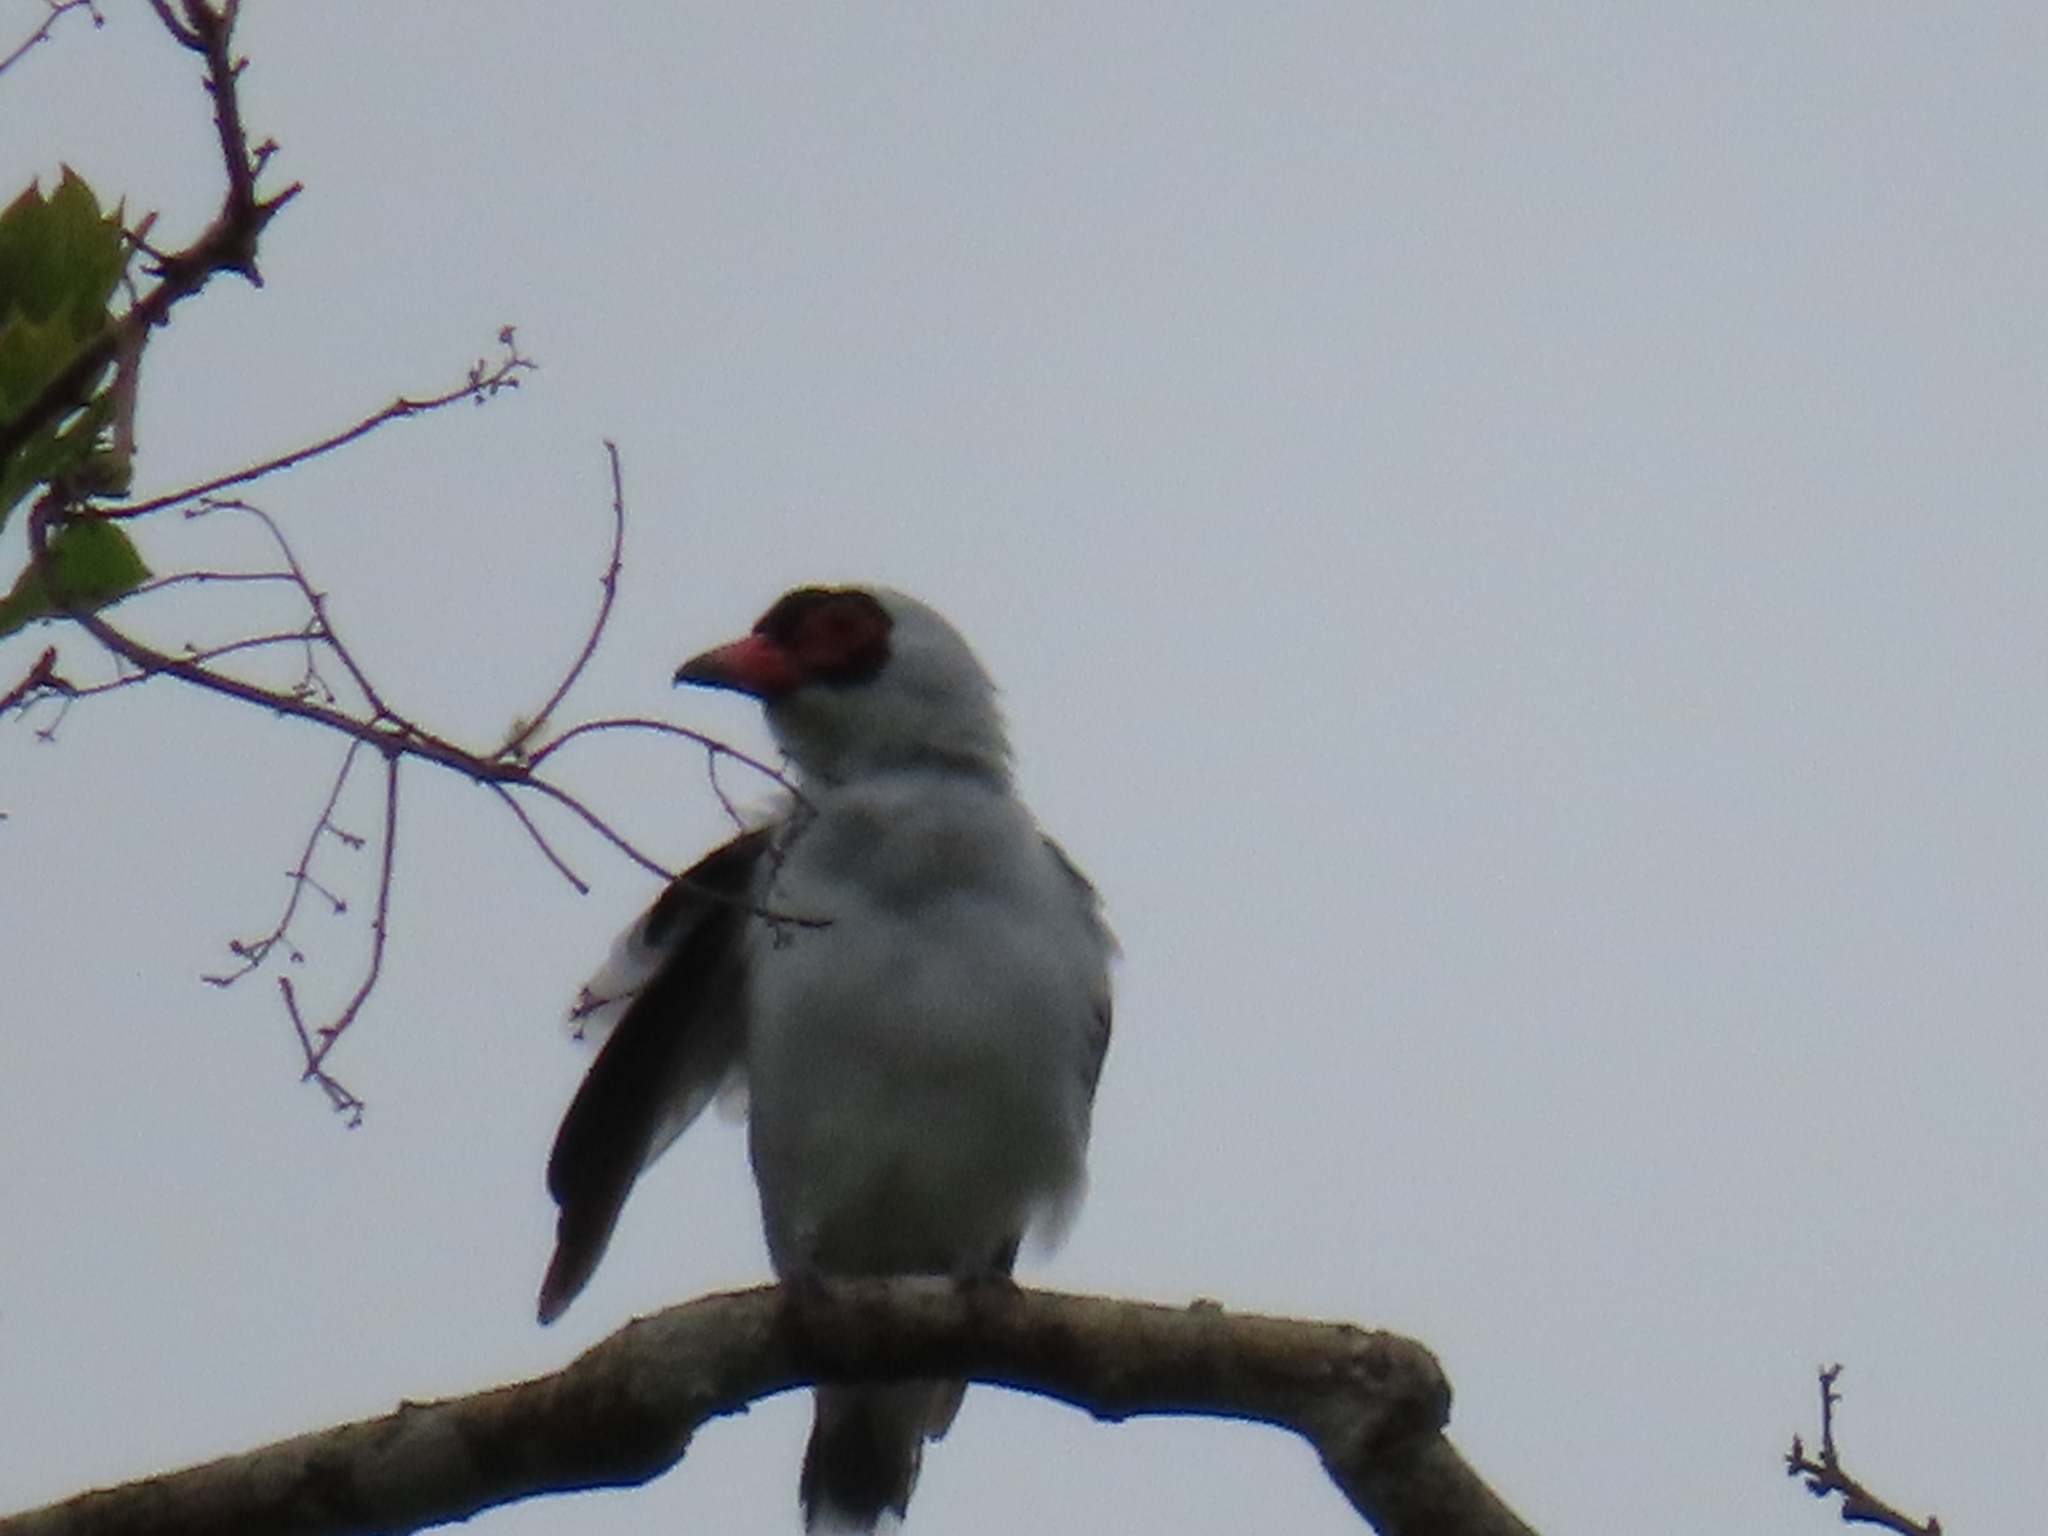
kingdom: Animalia
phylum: Chordata
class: Aves
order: Passeriformes
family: Cotingidae
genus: Tityra
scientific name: Tityra semifasciata
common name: Masked tityra
